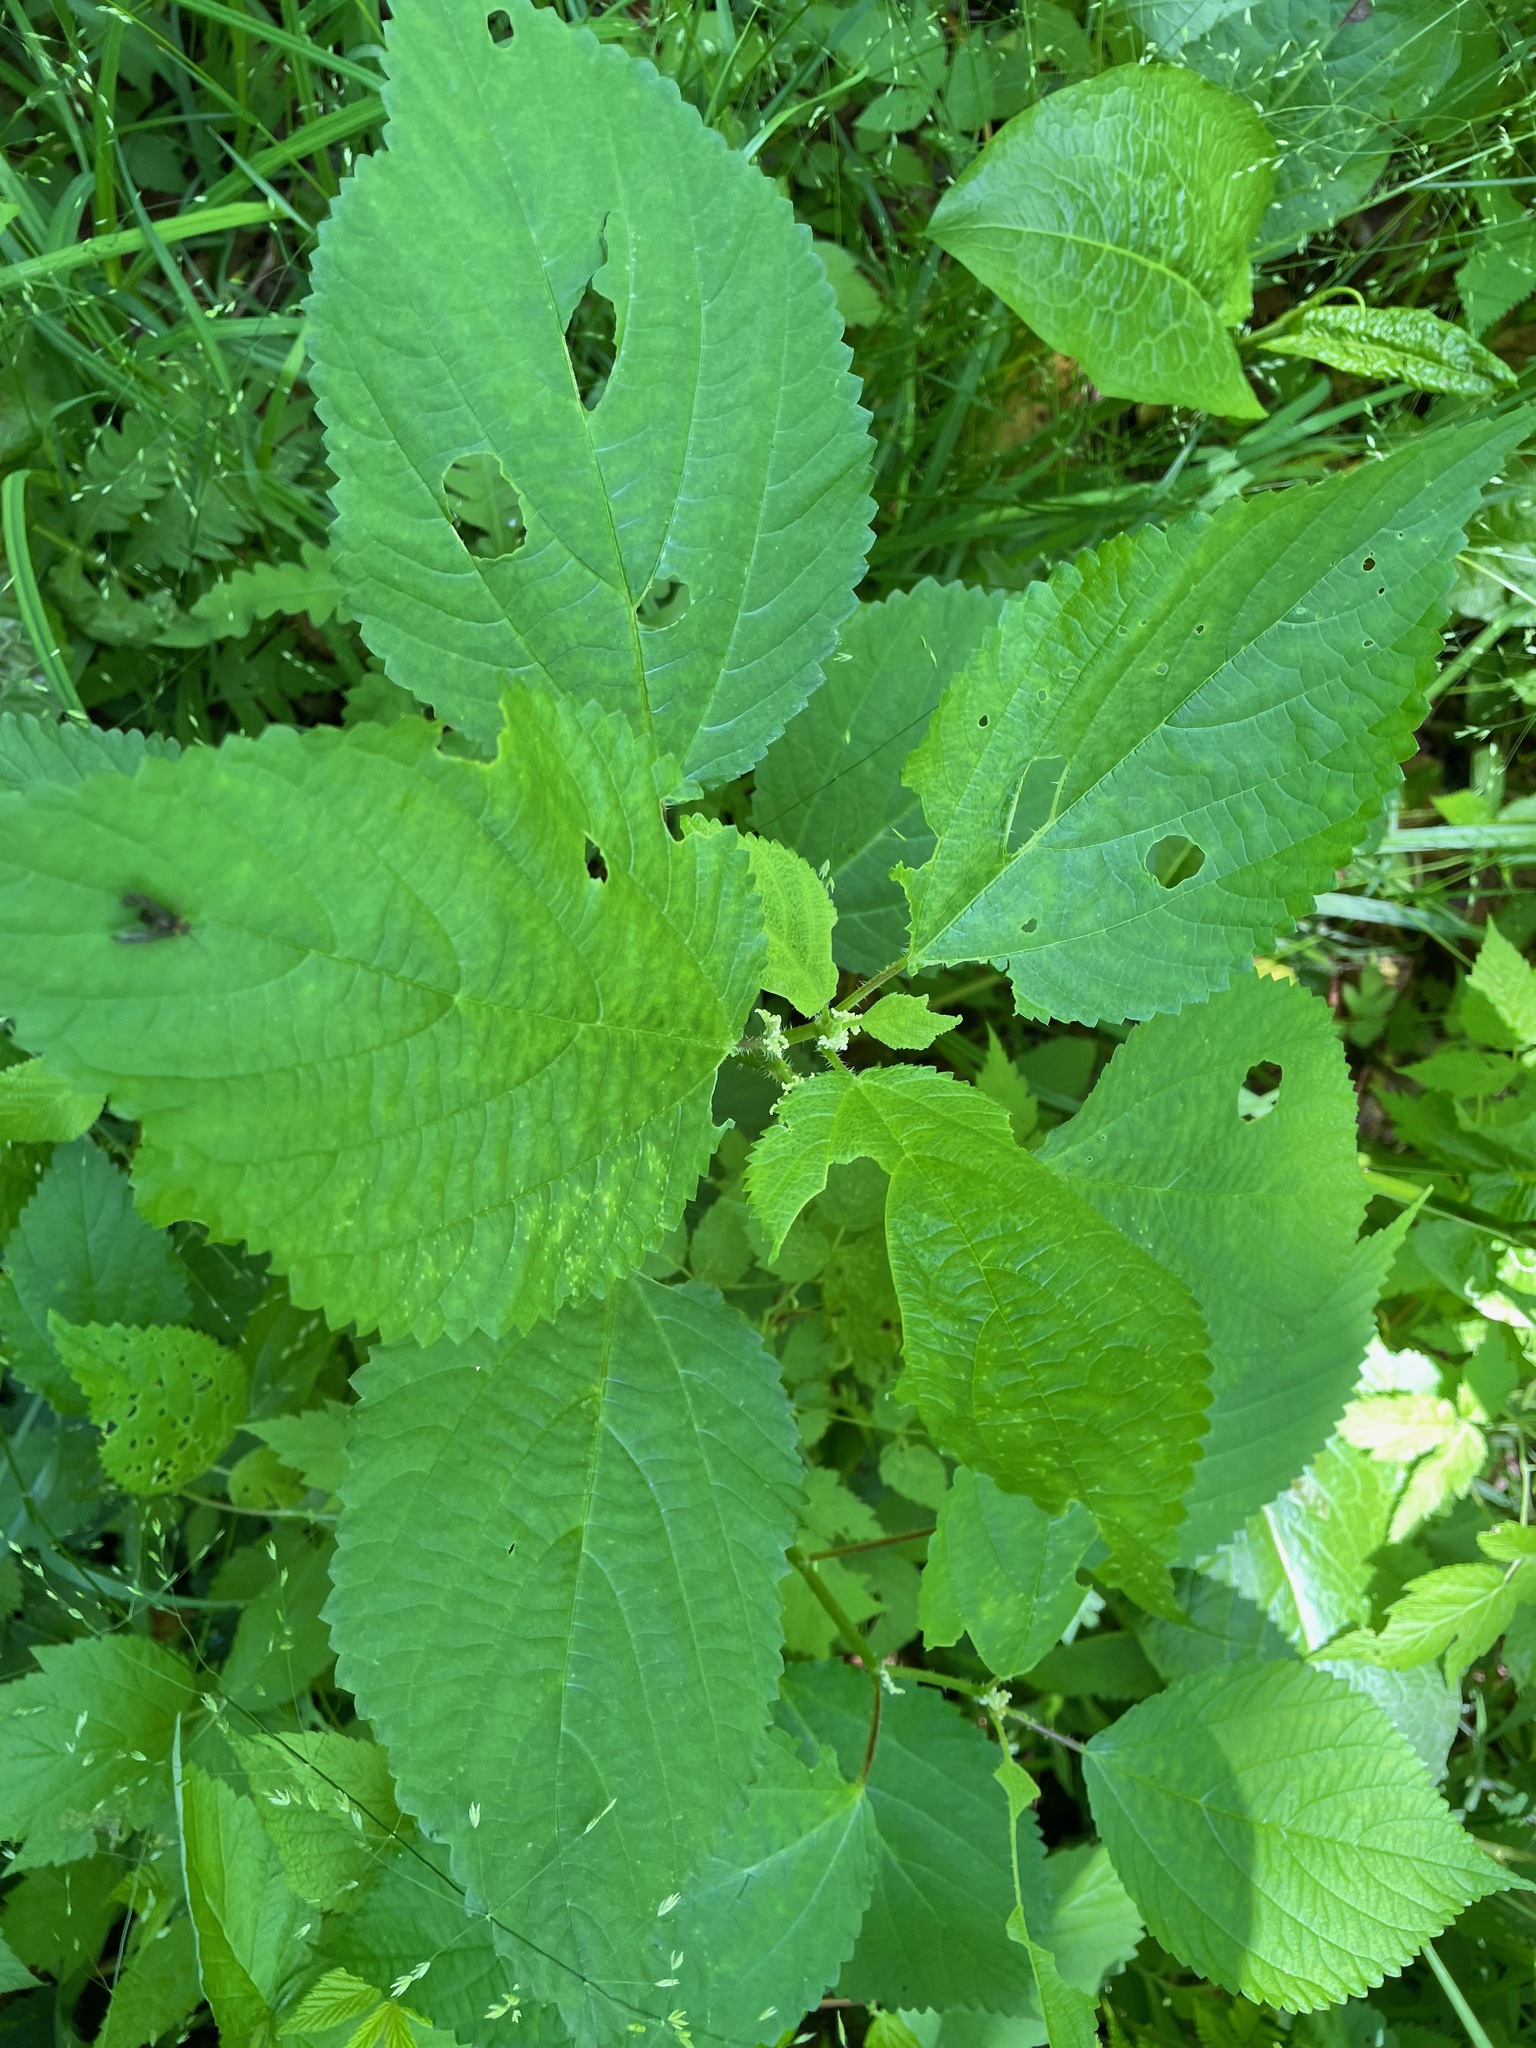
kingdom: Plantae
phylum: Tracheophyta
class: Magnoliopsida
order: Rosales
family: Urticaceae
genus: Laportea
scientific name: Laportea canadensis
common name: Canada nettle
